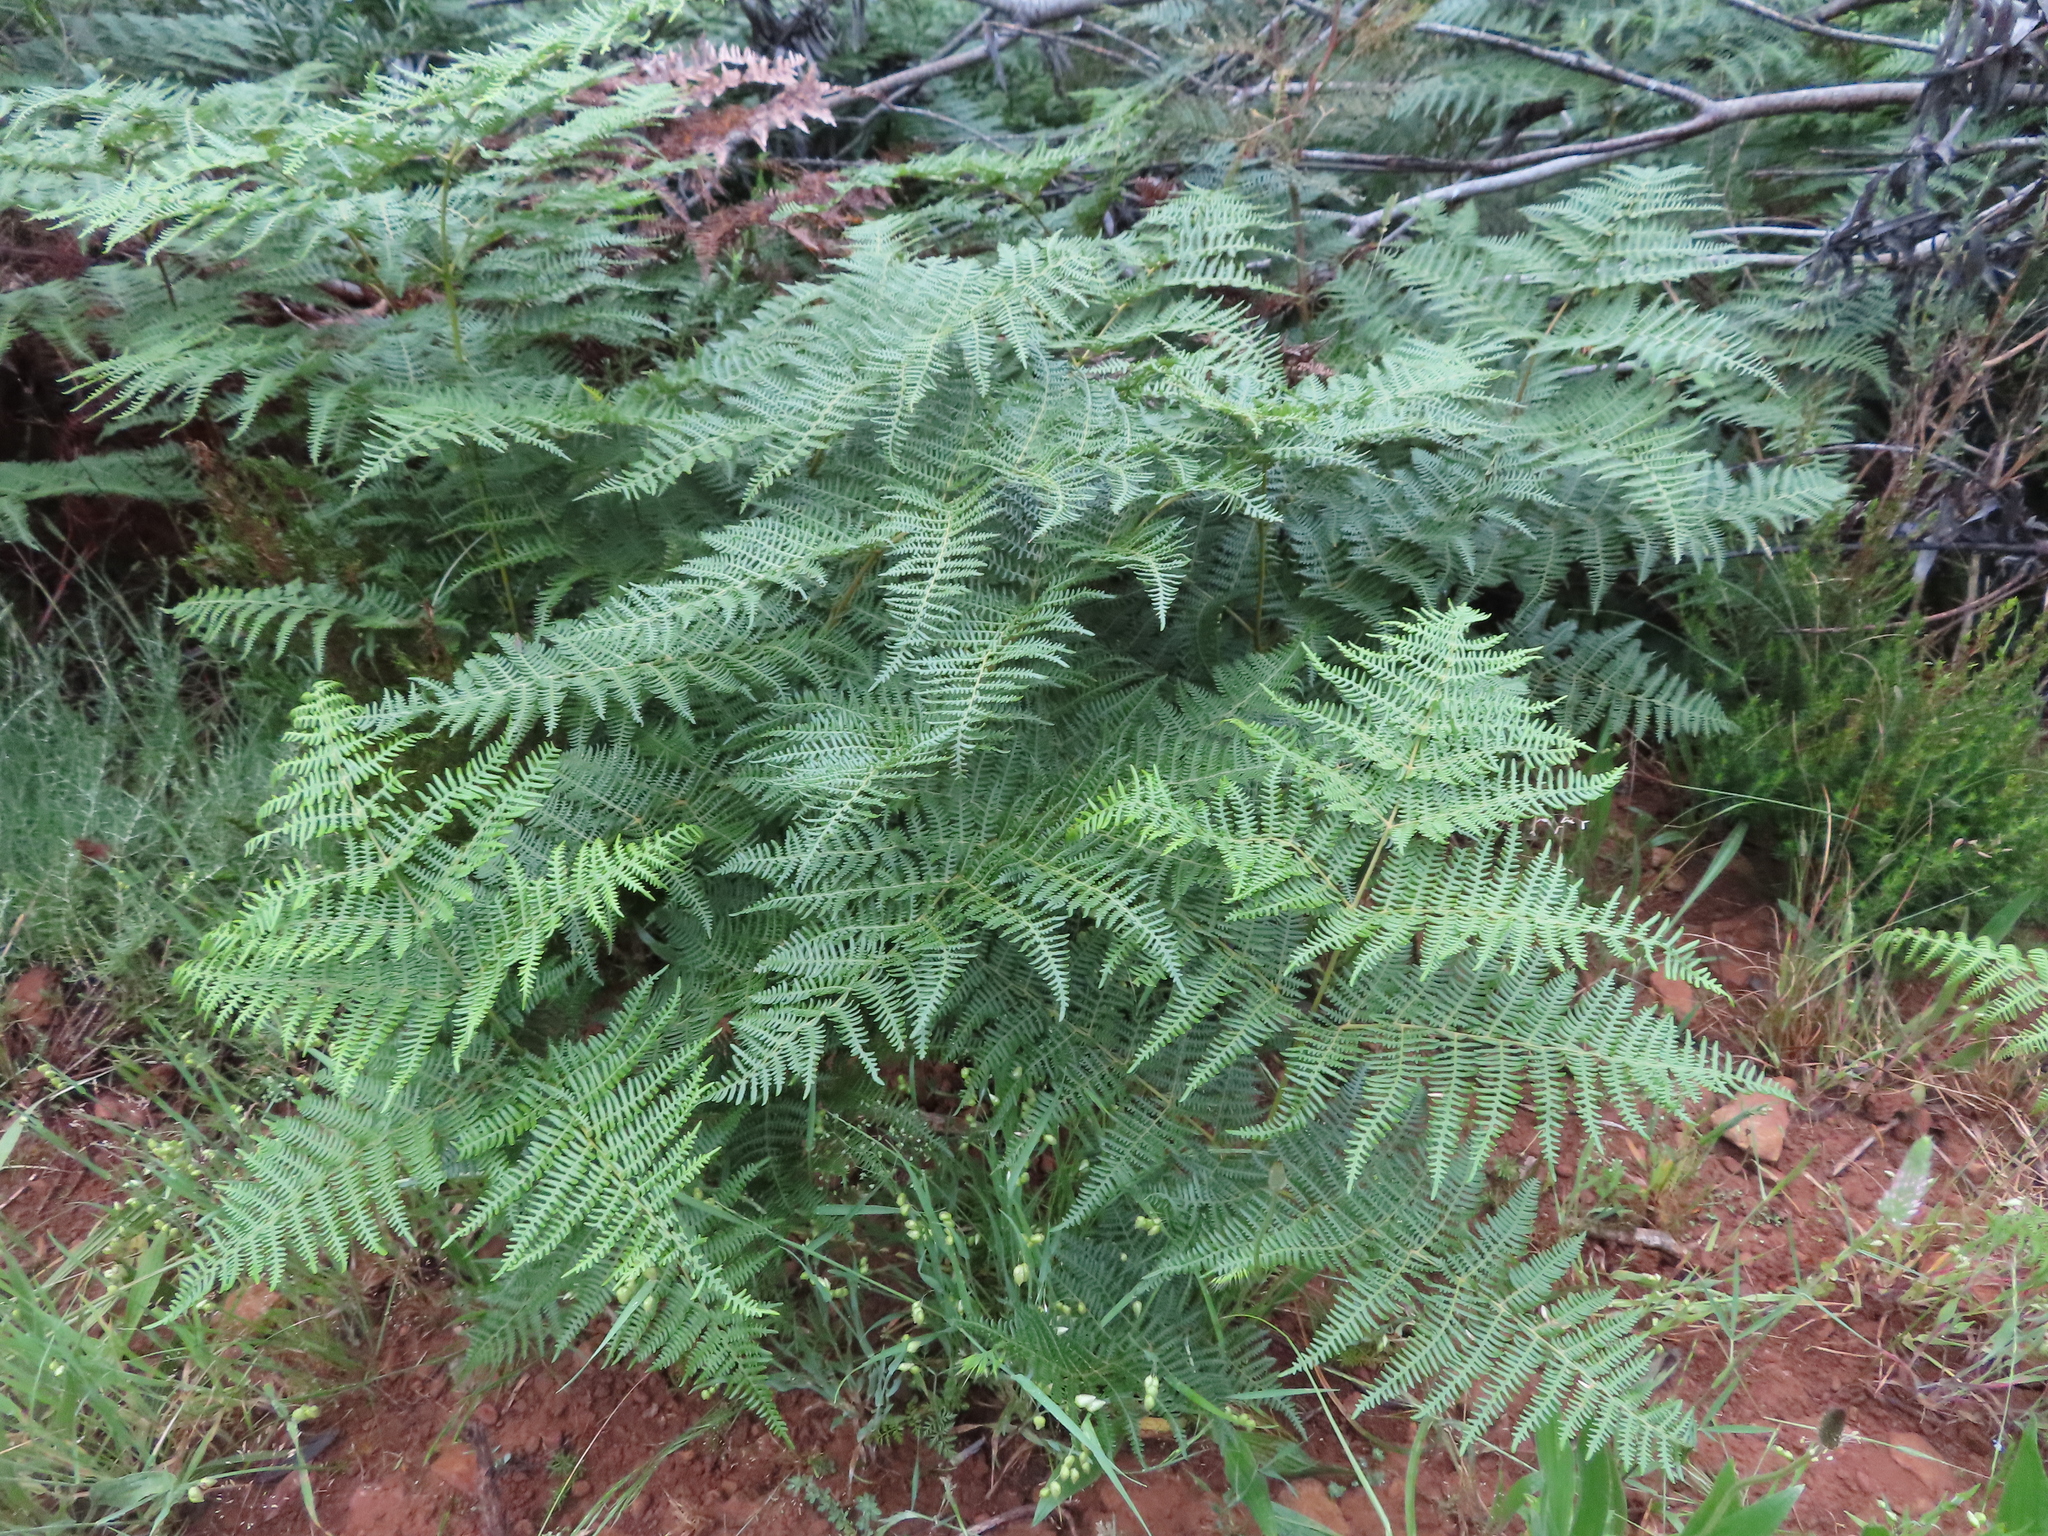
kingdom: Plantae
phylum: Tracheophyta
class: Polypodiopsida
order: Polypodiales
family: Dennstaedtiaceae
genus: Pteridium
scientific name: Pteridium aquilinum
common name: Bracken
